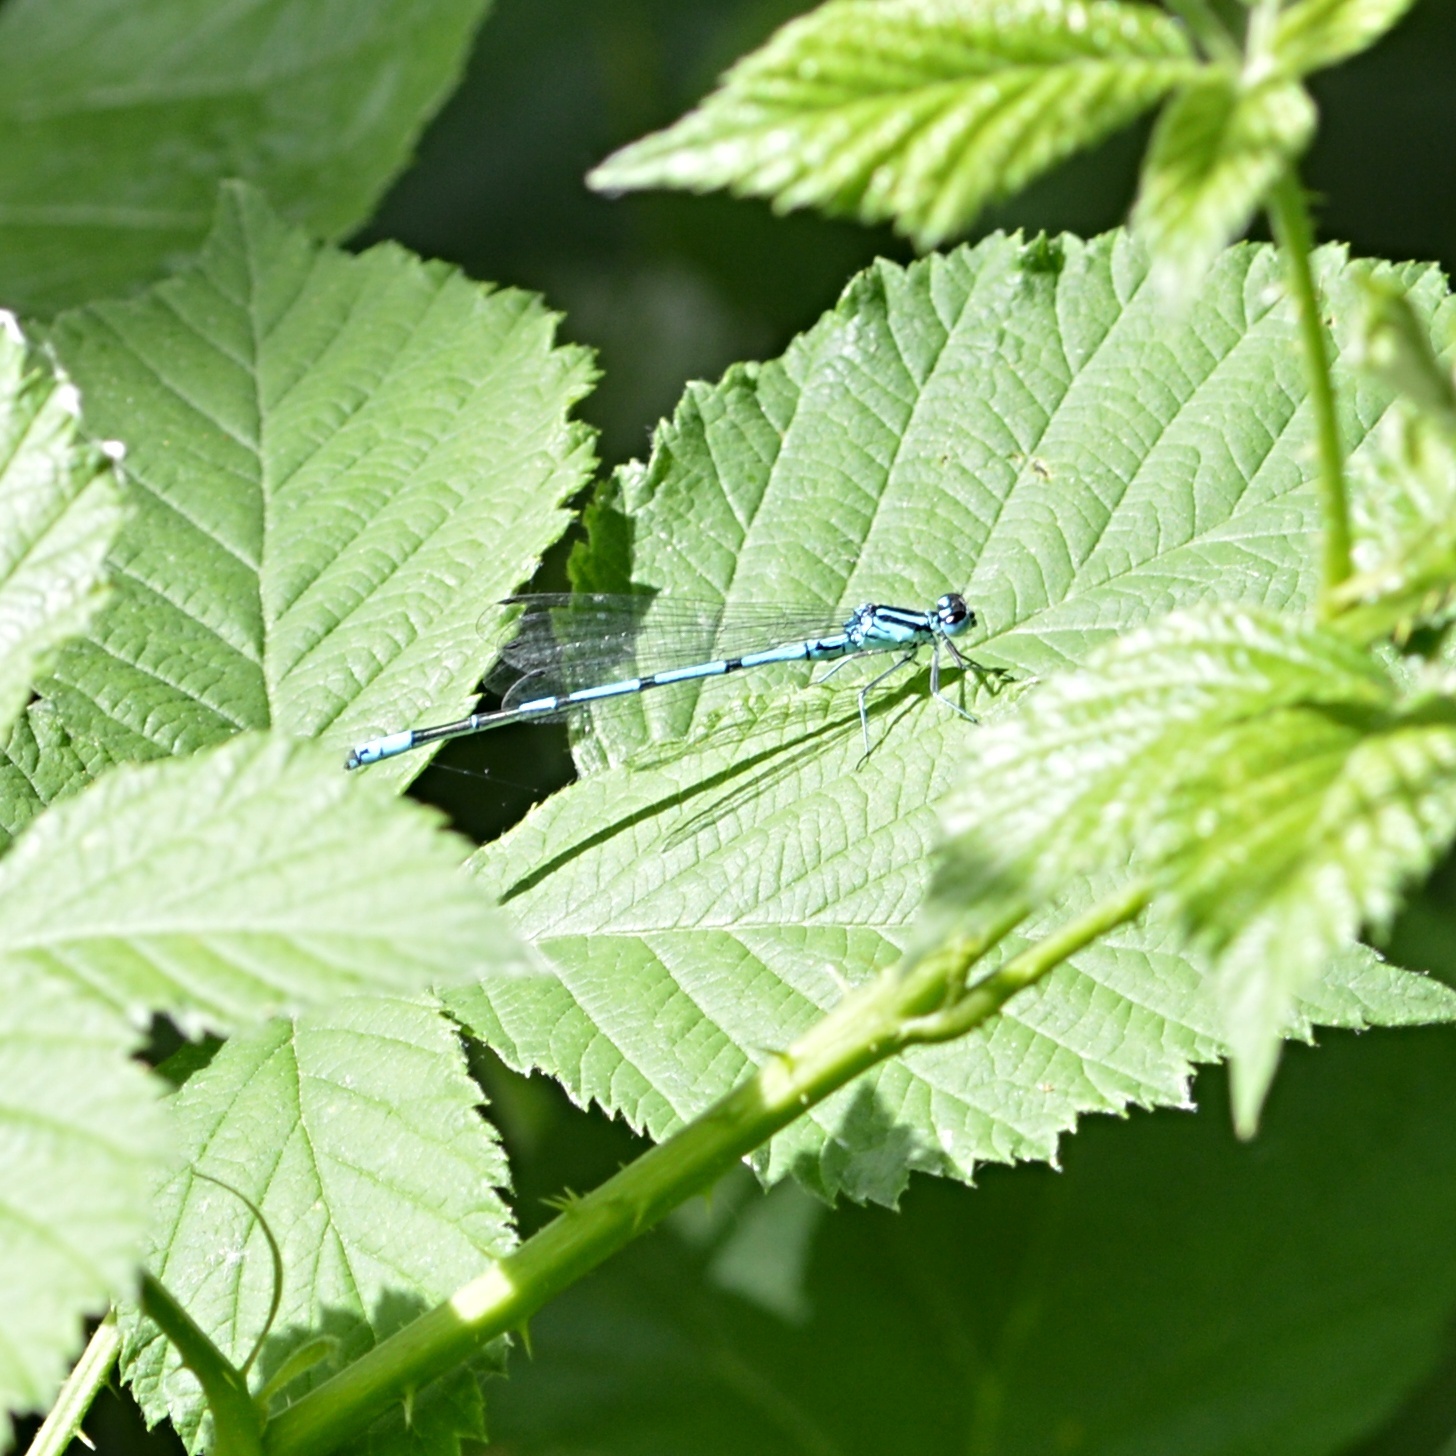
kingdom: Animalia
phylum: Arthropoda
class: Insecta
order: Odonata
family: Coenagrionidae
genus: Coenagrion
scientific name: Coenagrion puella
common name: Azure damselfly
